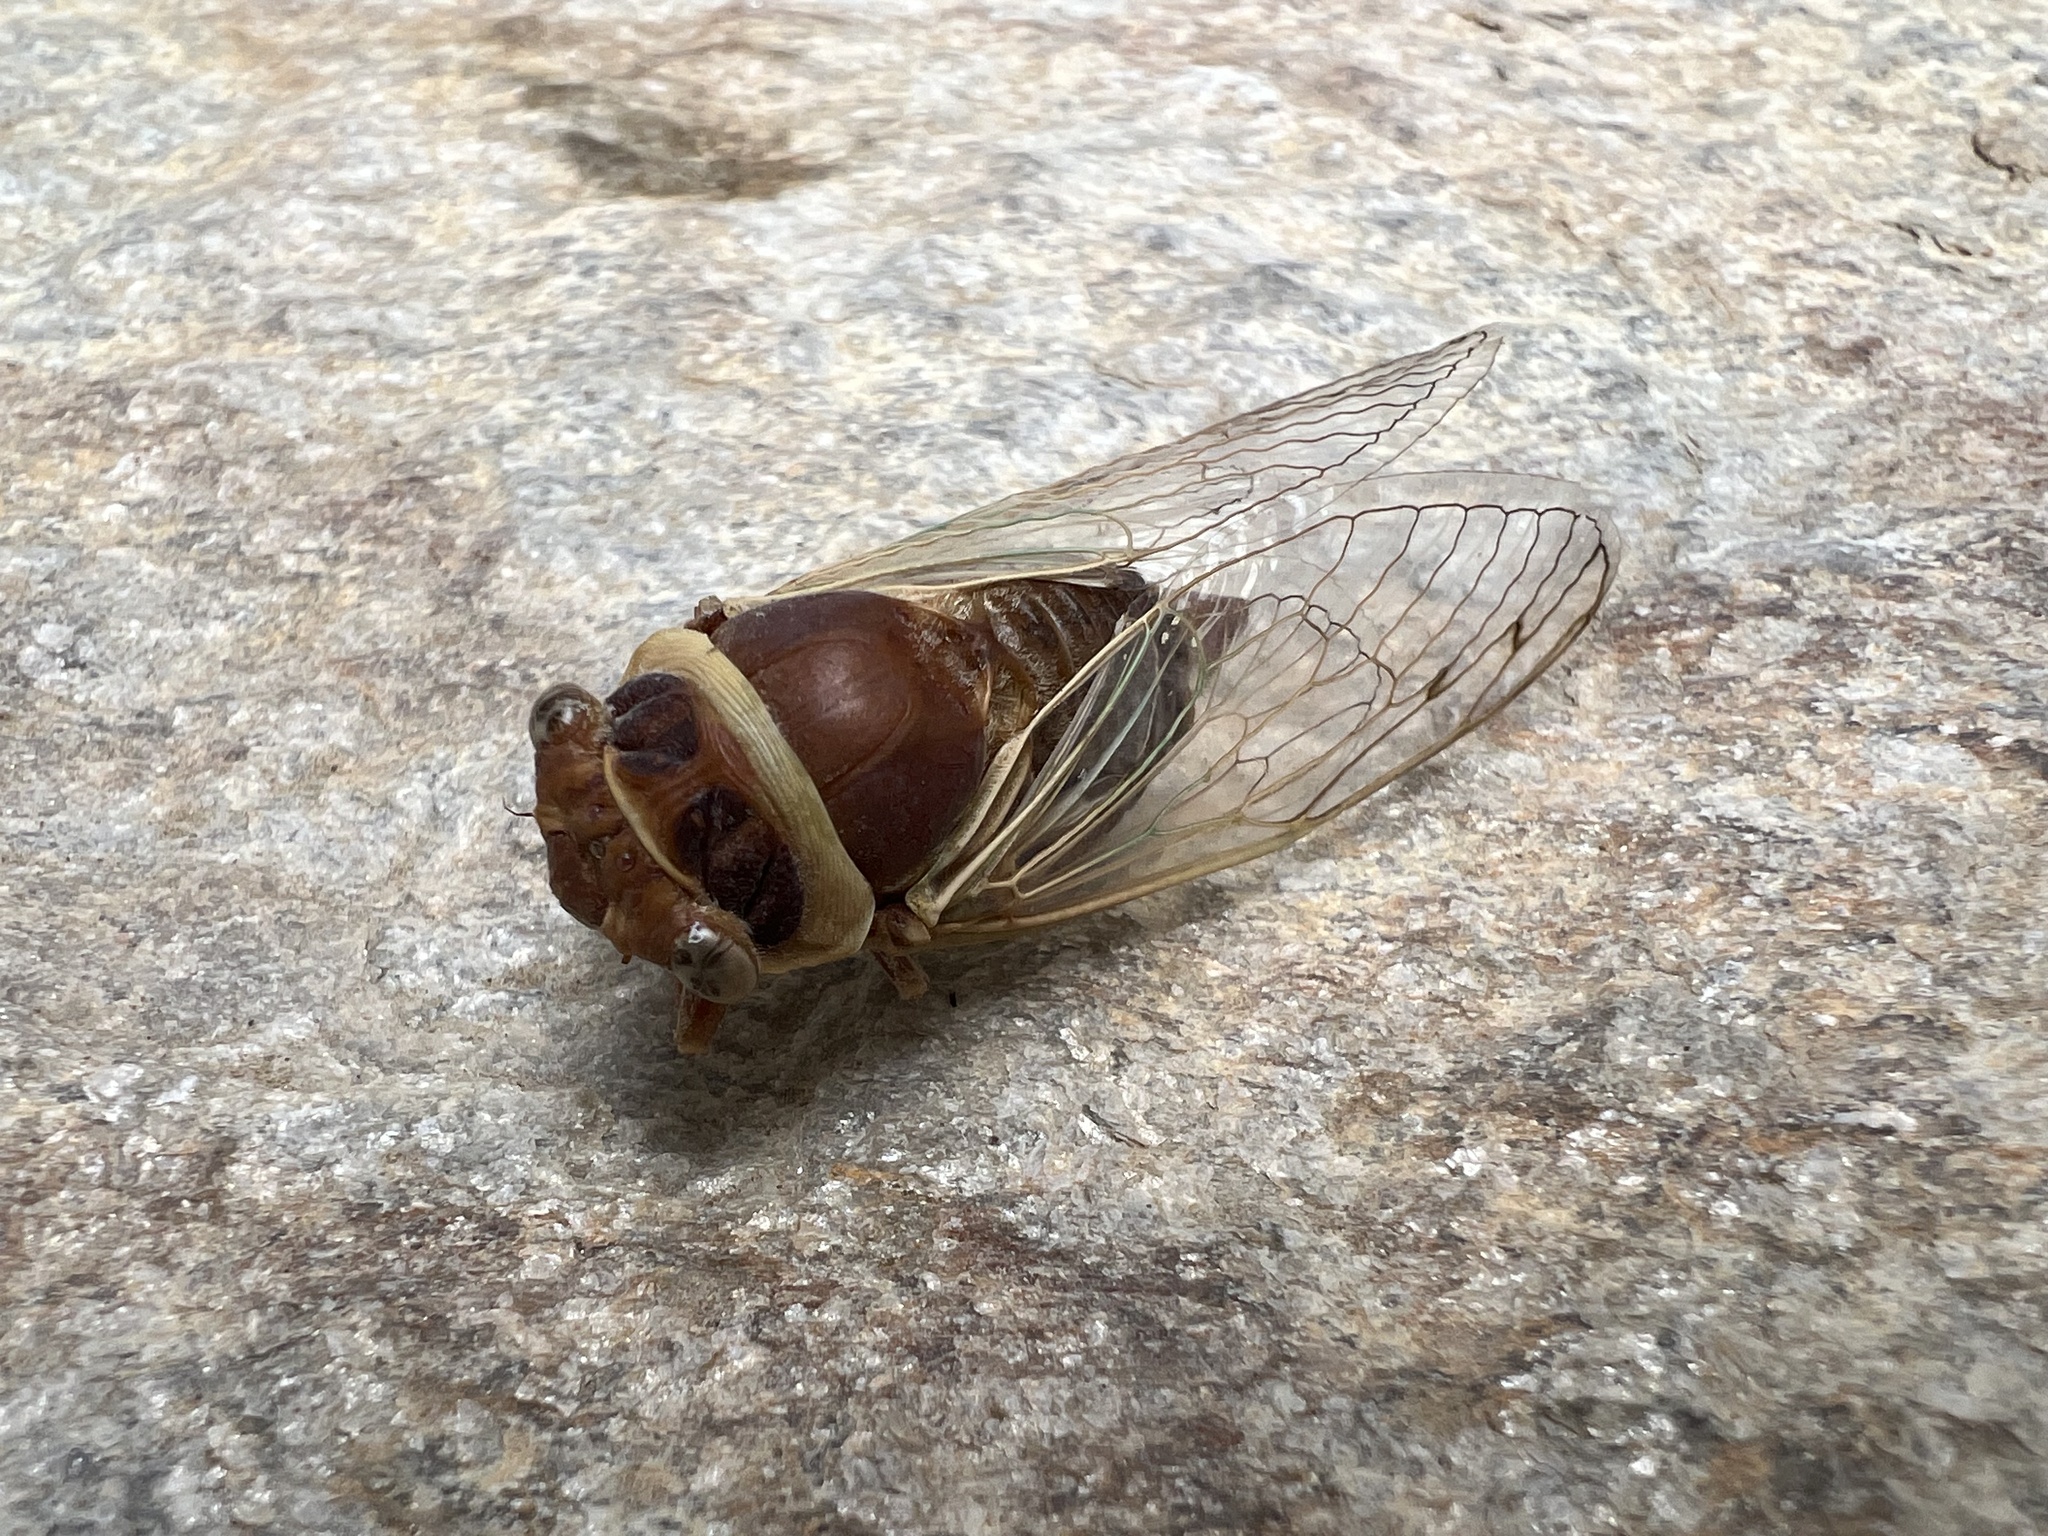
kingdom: Animalia
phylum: Arthropoda
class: Insecta
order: Hemiptera
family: Cicadidae
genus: Diceroprocta
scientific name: Diceroprocta apache
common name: Desert cicada
